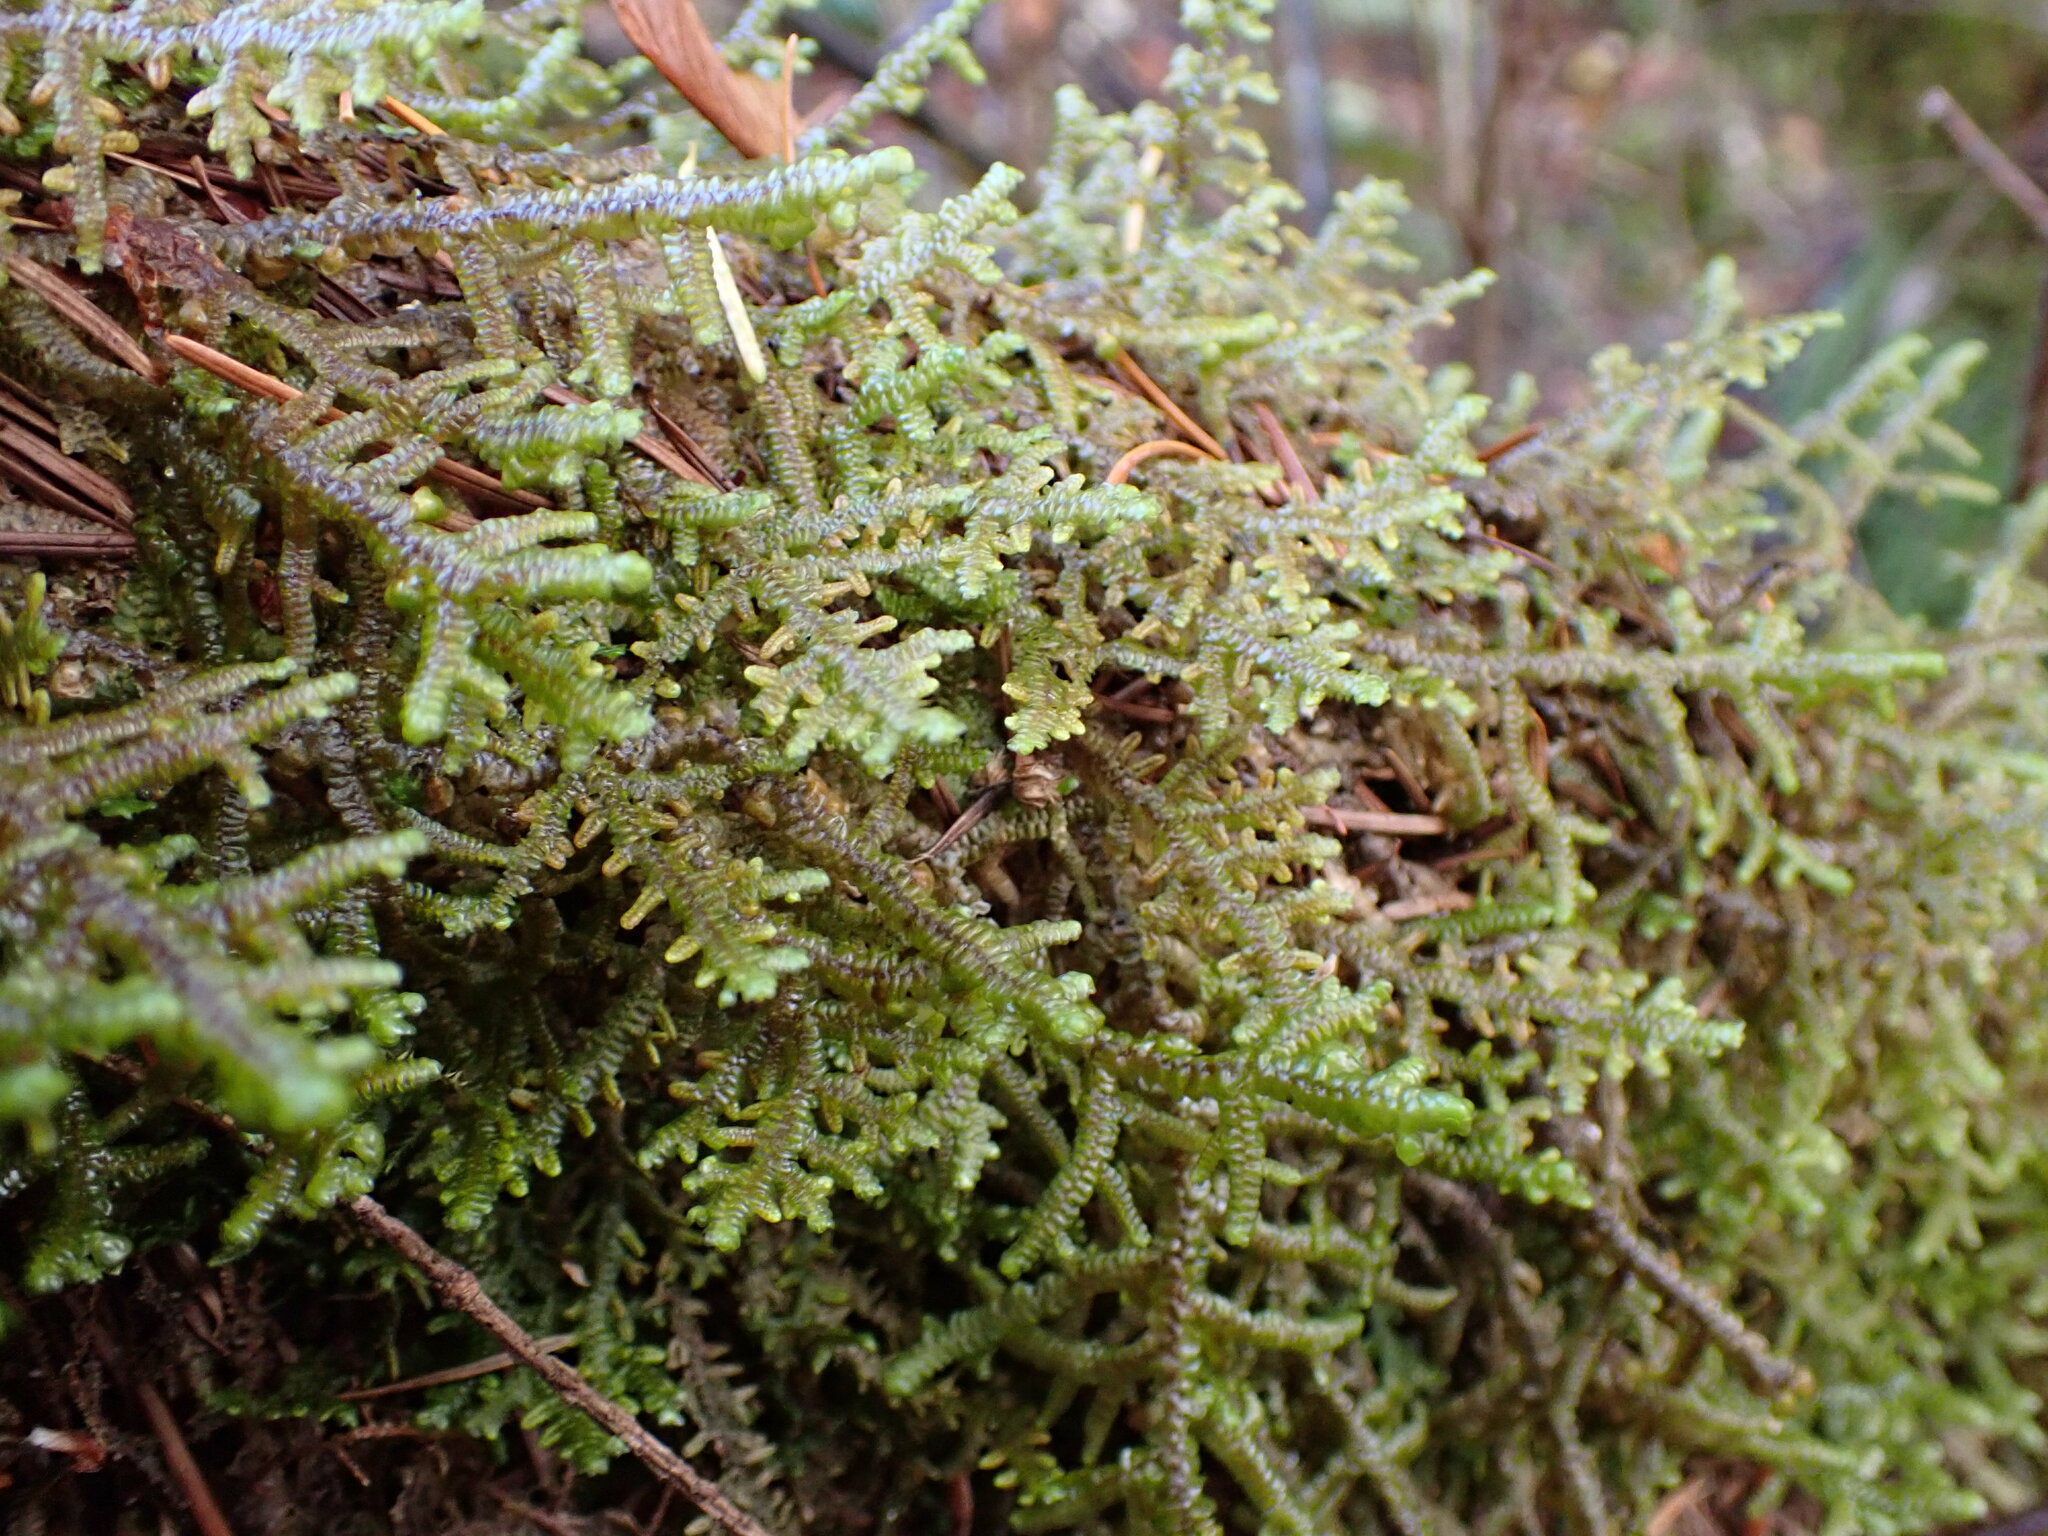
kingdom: Plantae
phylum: Marchantiophyta
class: Jungermanniopsida
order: Porellales
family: Porellaceae
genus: Porella
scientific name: Porella navicularis
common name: Tree ruffle liverwort
